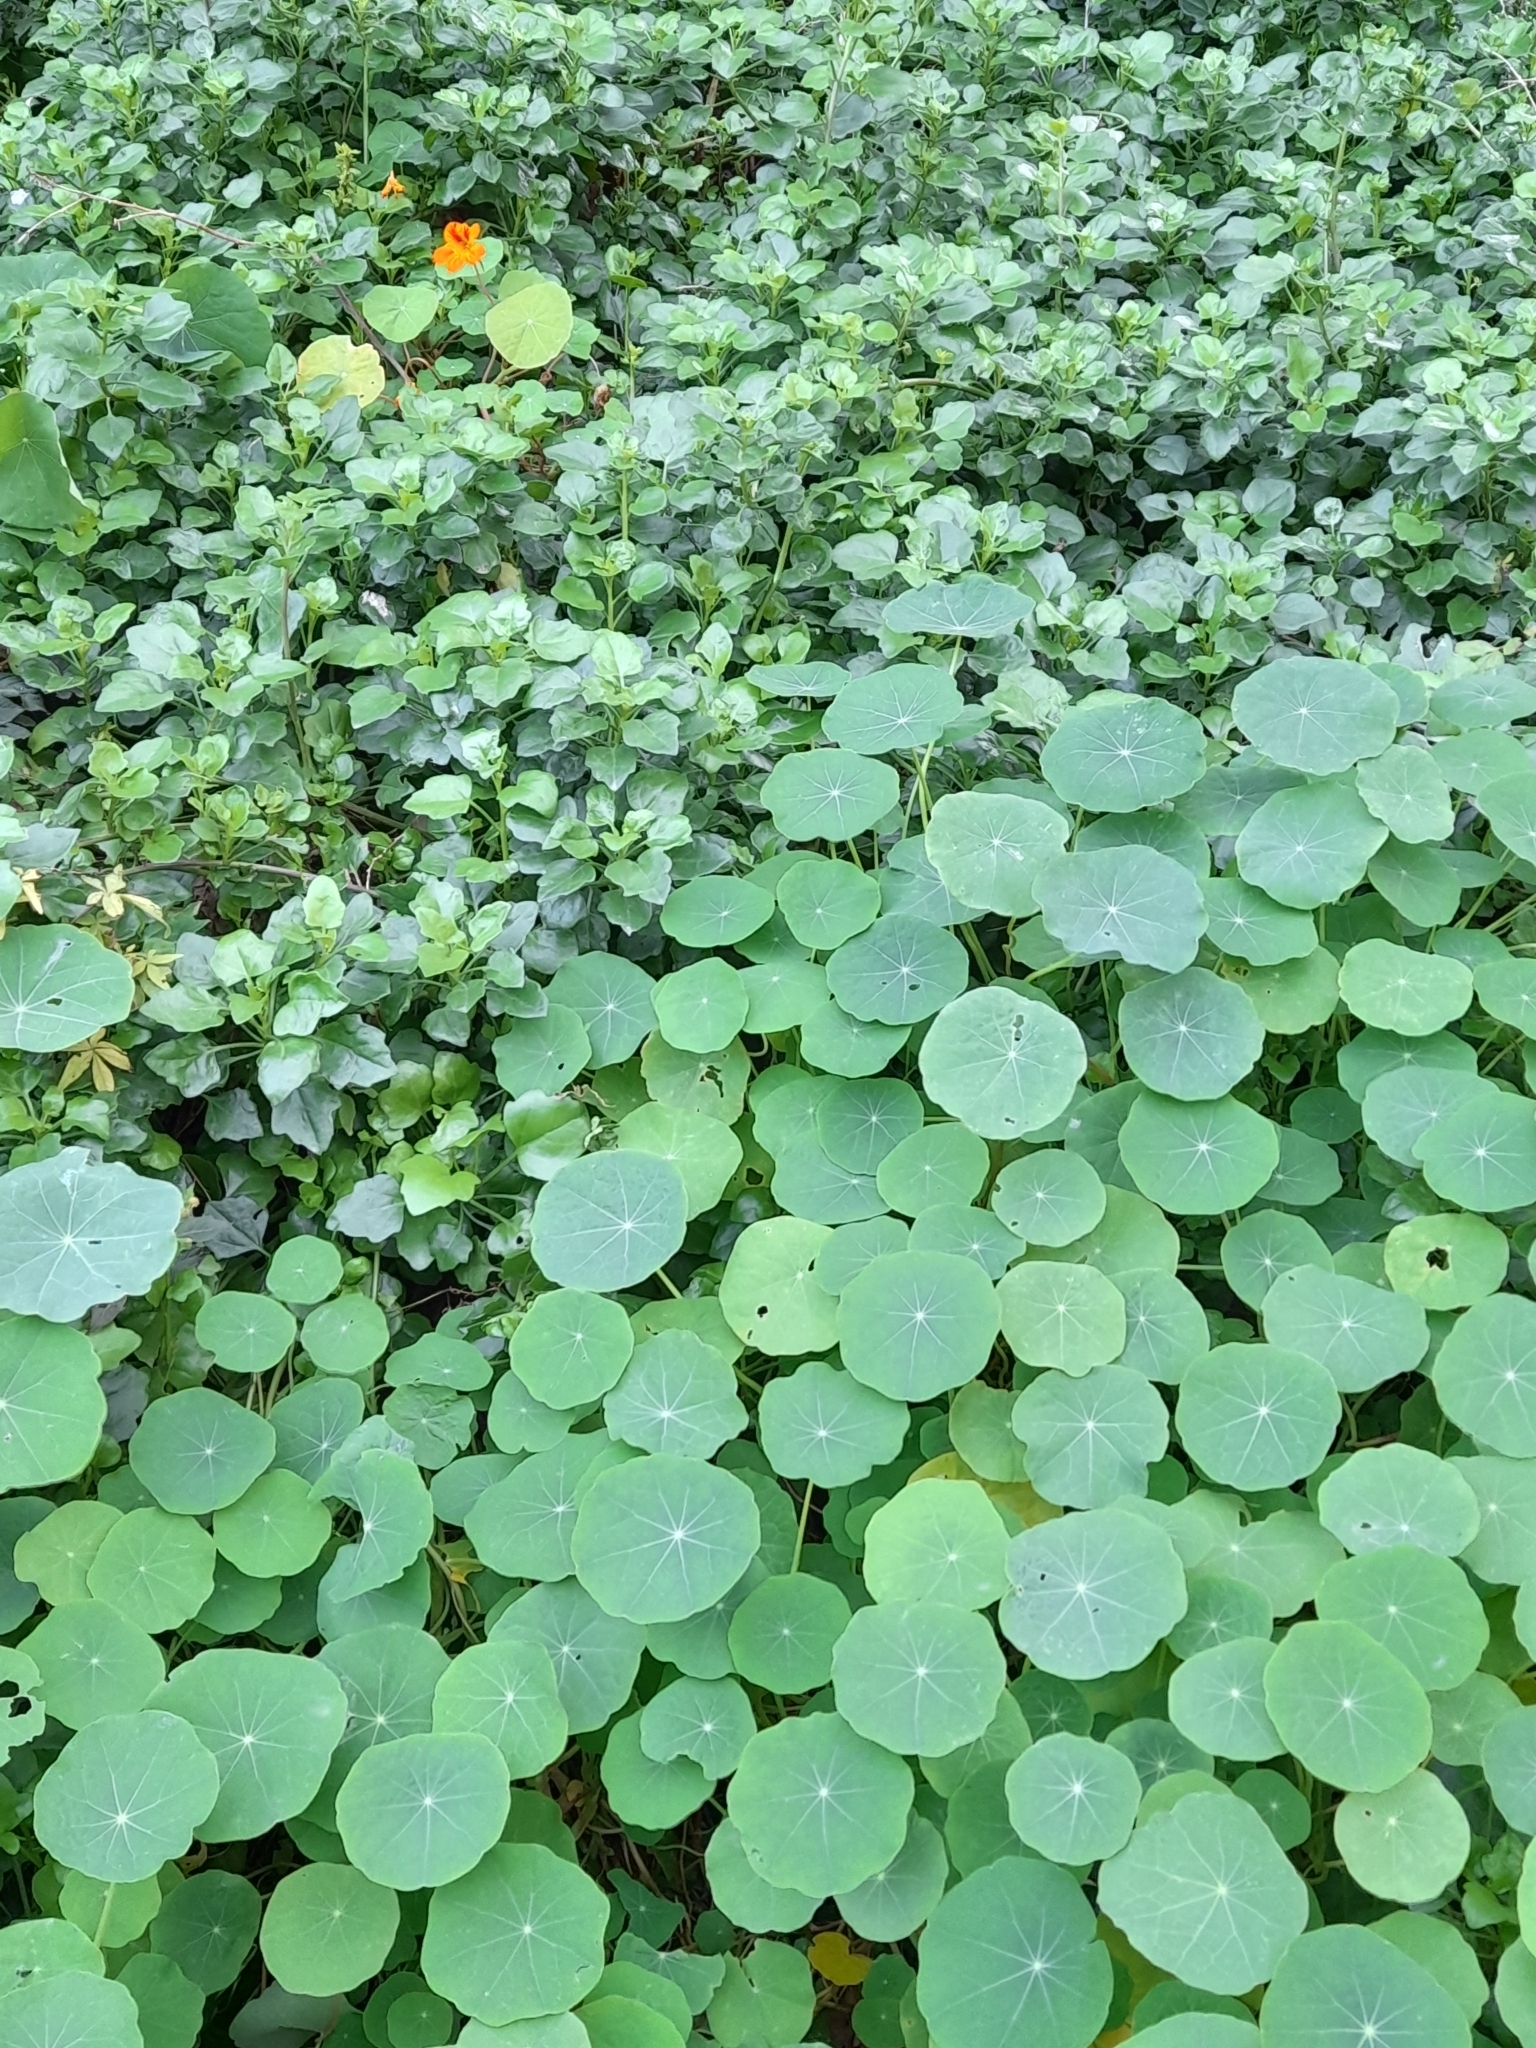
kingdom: Plantae
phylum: Tracheophyta
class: Magnoliopsida
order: Brassicales
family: Tropaeolaceae
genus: Tropaeolum
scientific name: Tropaeolum majus
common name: Nasturtium
